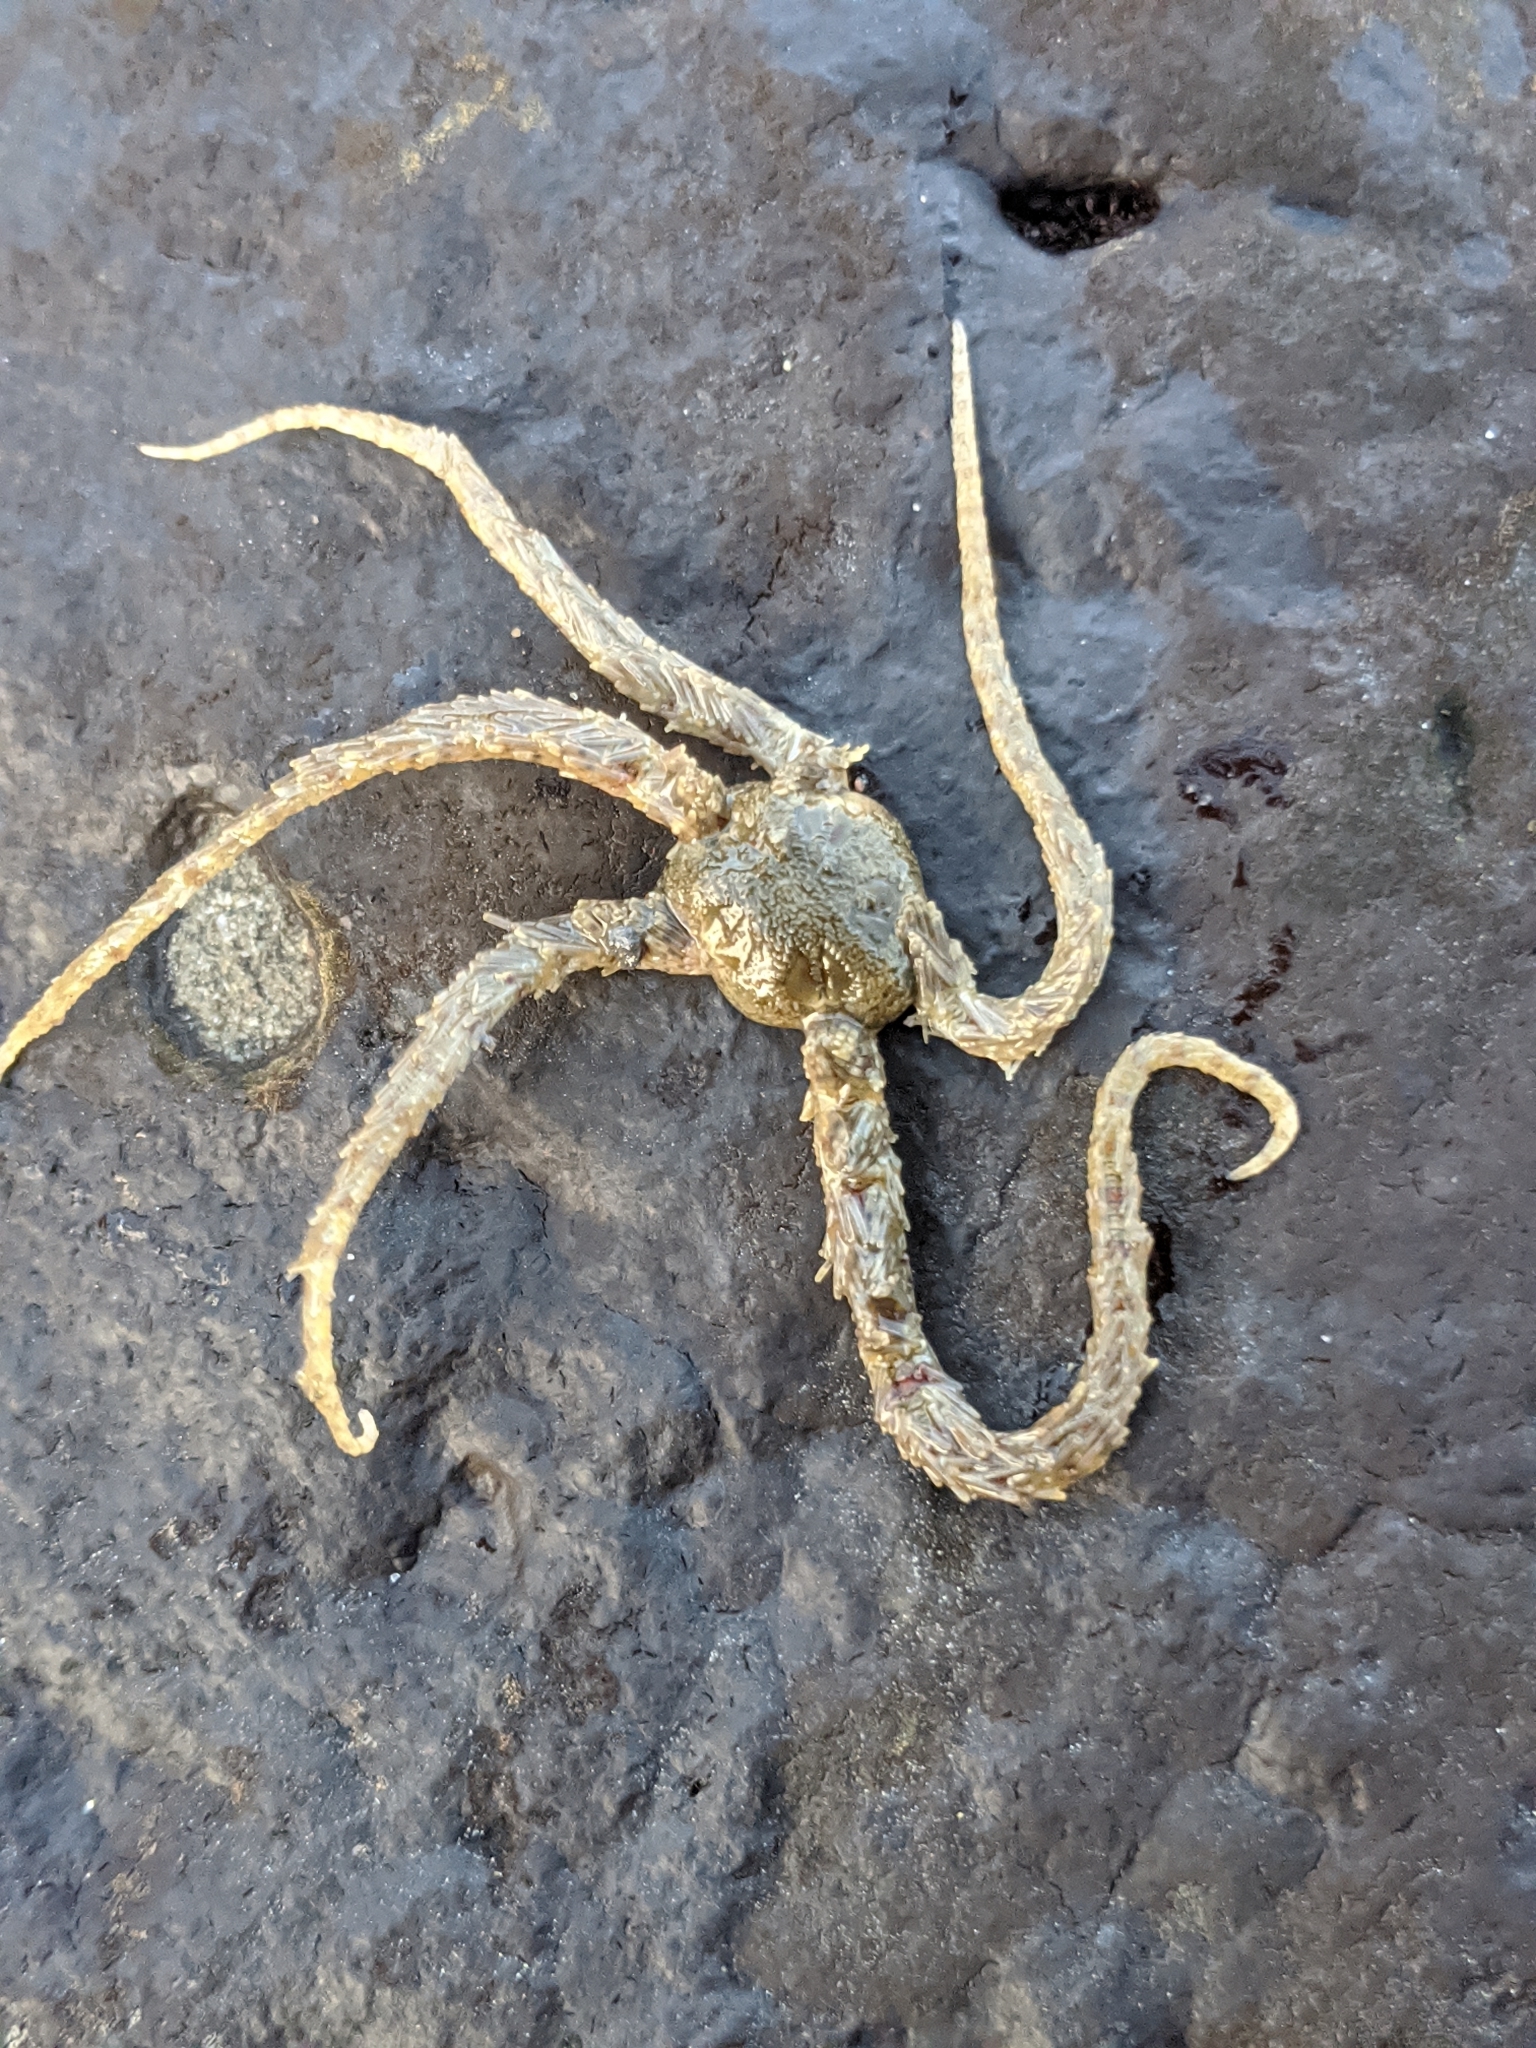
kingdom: Animalia
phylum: Echinodermata
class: Ophiuroidea
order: Amphilepidida
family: Ophiotrichidae
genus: Ophiothrix
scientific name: Ophiothrix rudis
